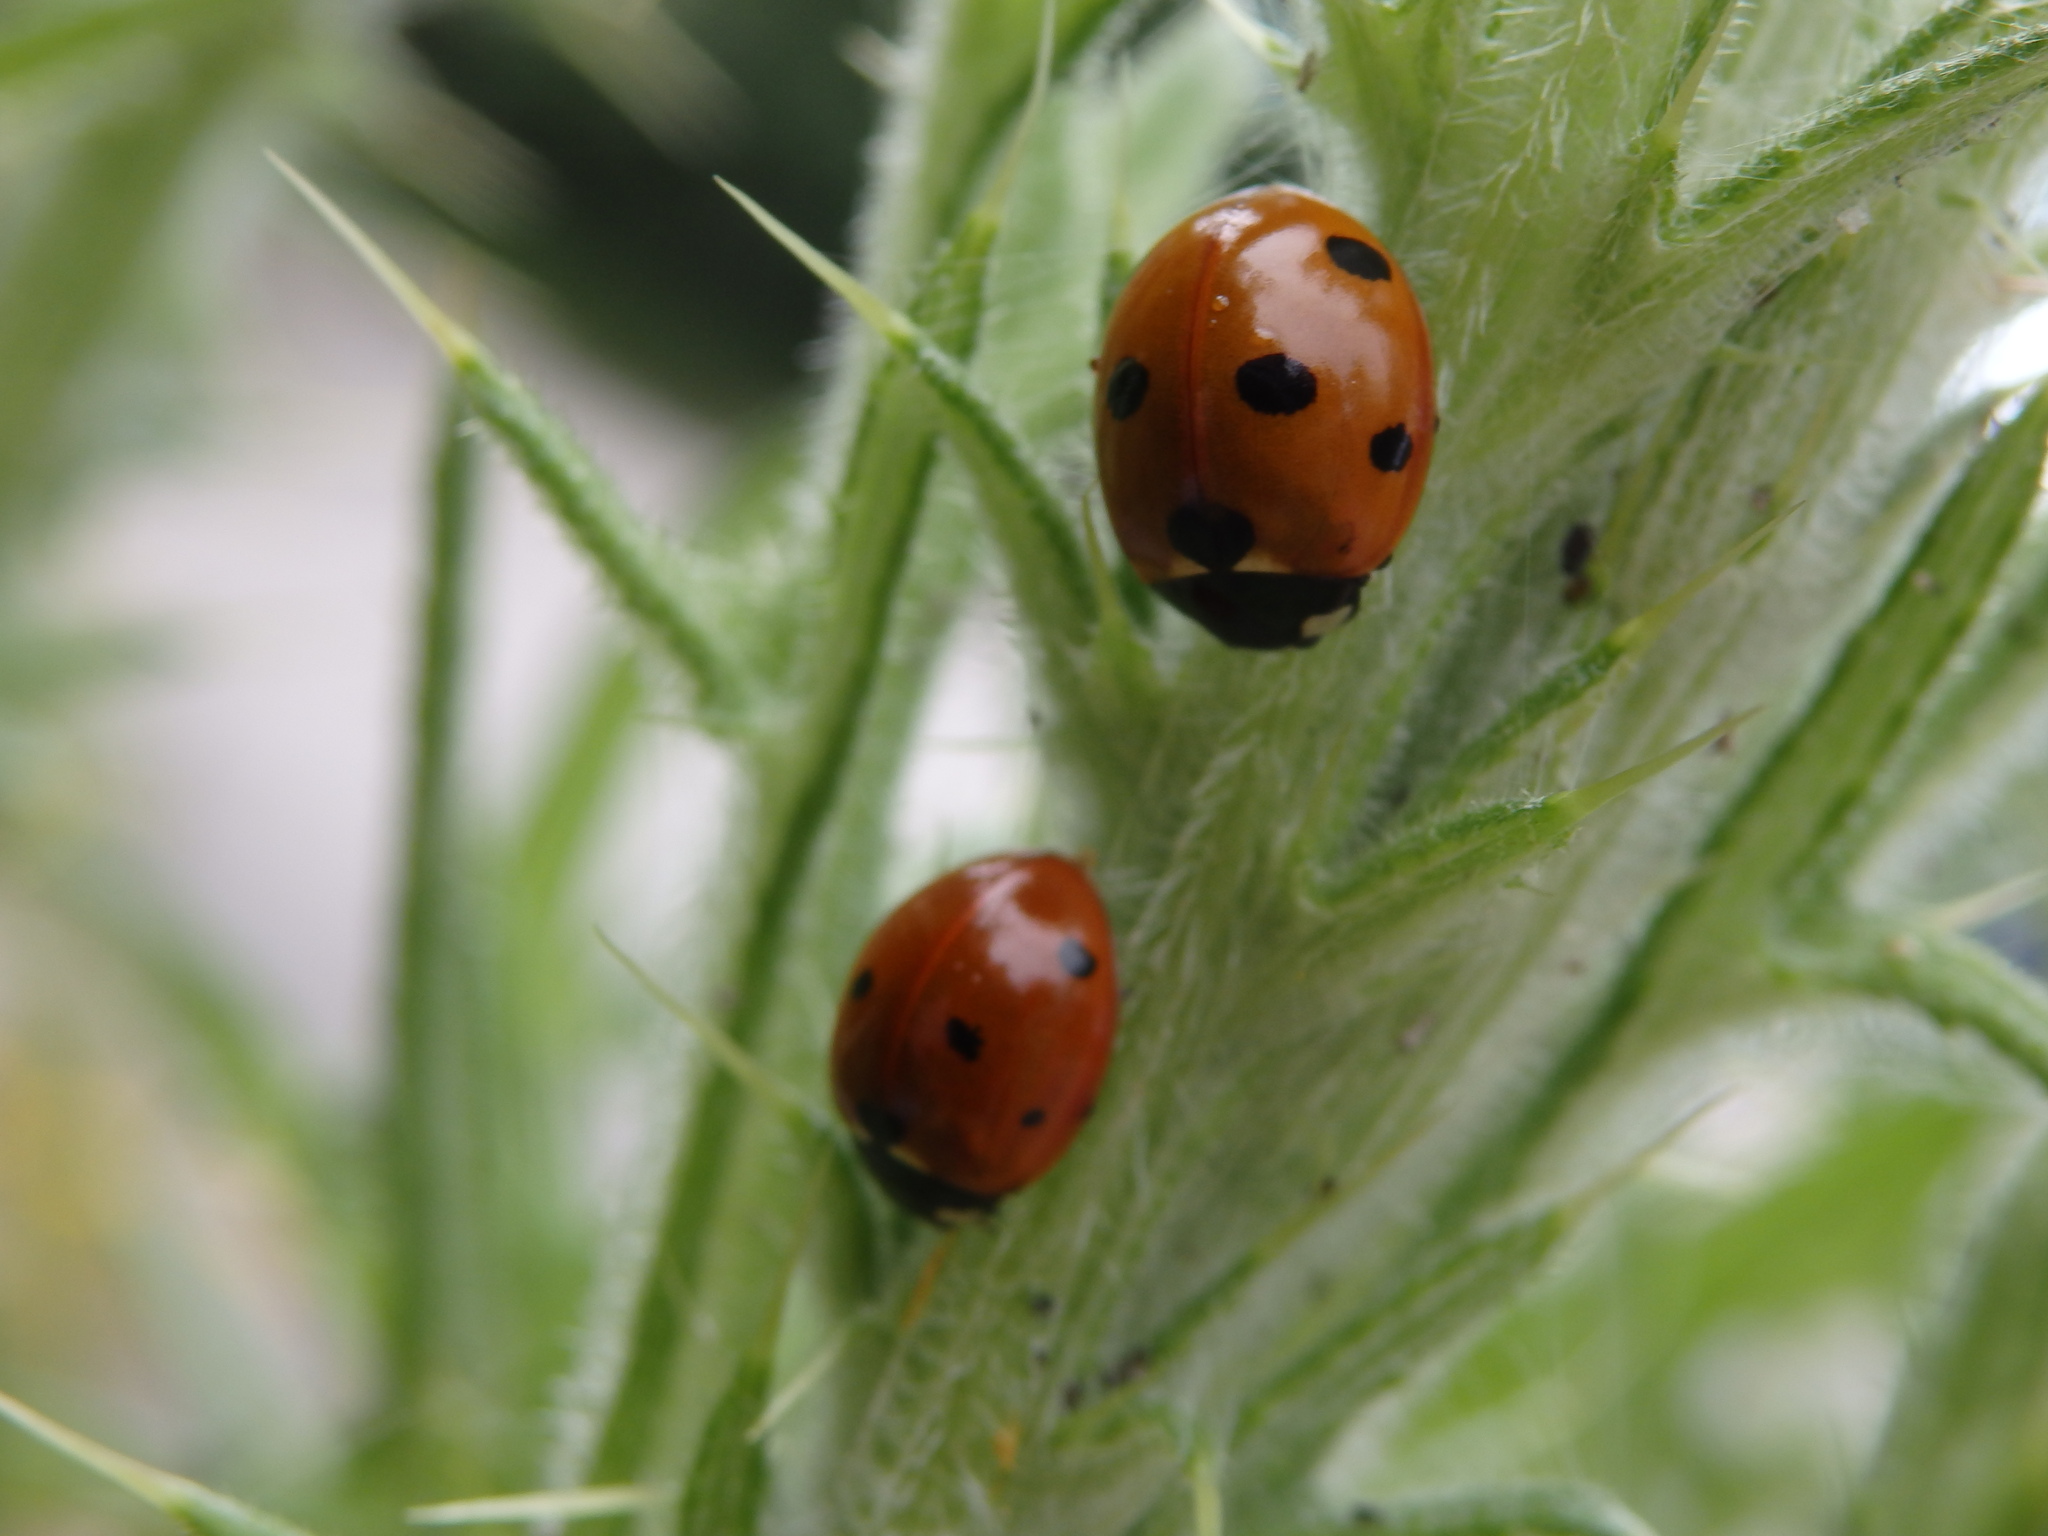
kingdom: Animalia
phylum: Arthropoda
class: Insecta
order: Coleoptera
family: Coccinellidae
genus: Coccinella
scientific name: Coccinella septempunctata
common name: Sevenspotted lady beetle
